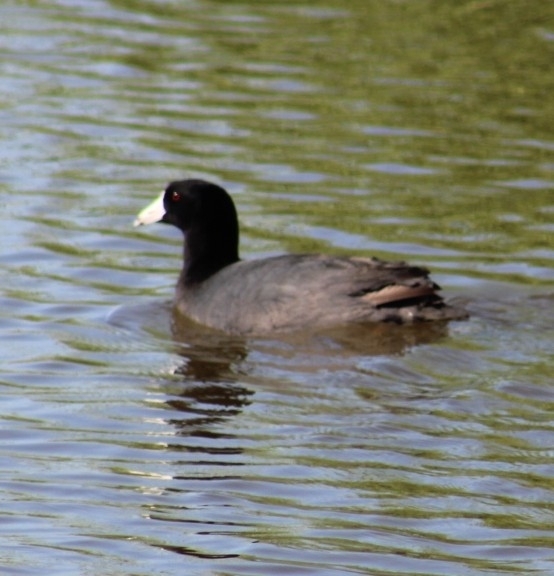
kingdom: Animalia
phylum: Chordata
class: Aves
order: Gruiformes
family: Rallidae
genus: Fulica
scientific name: Fulica americana
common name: American coot
